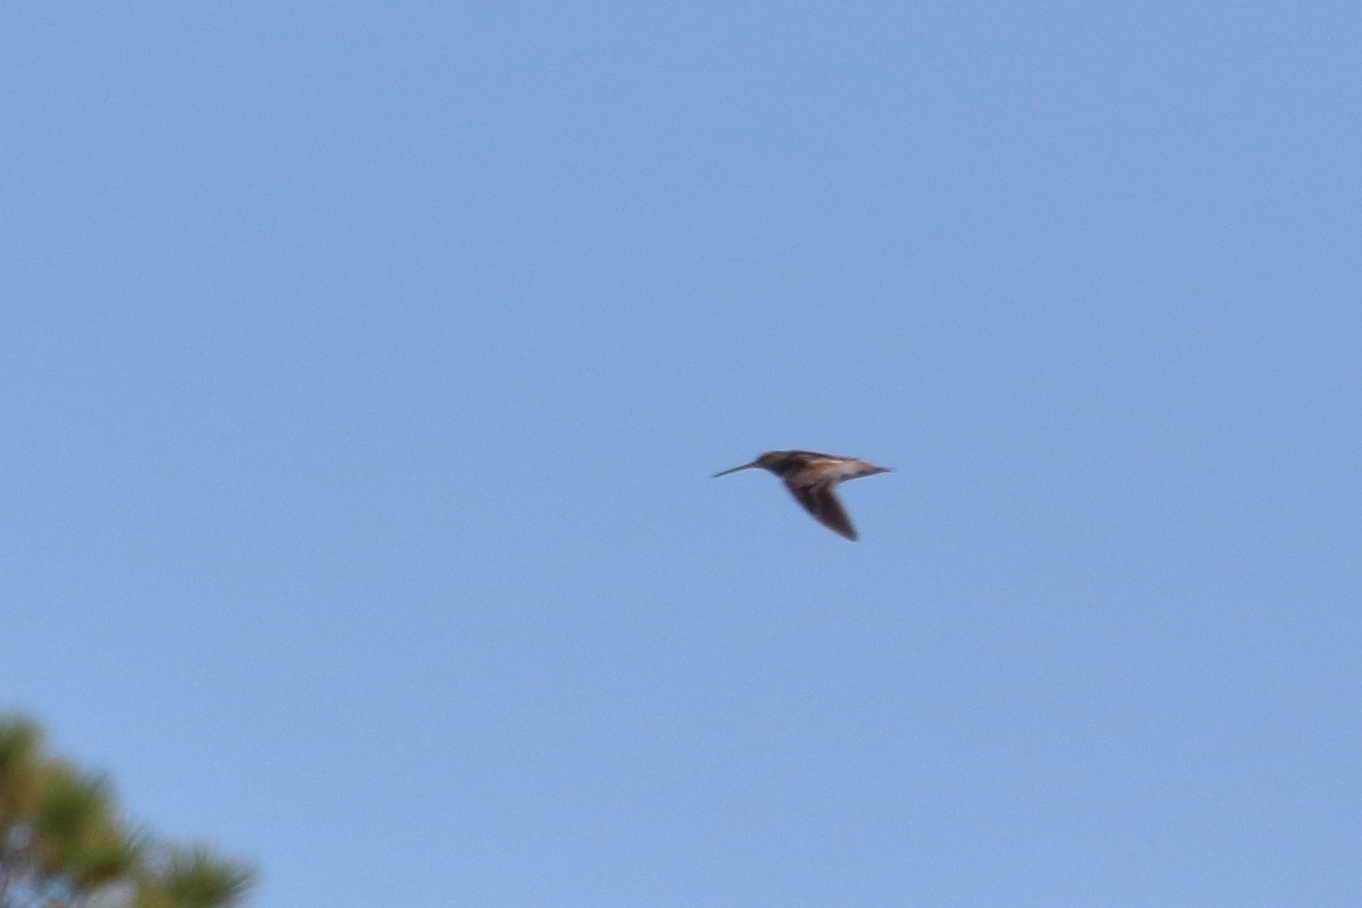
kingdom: Animalia
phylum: Chordata
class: Aves
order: Charadriiformes
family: Scolopacidae
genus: Gallinago
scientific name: Gallinago delicata
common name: Wilson's snipe
